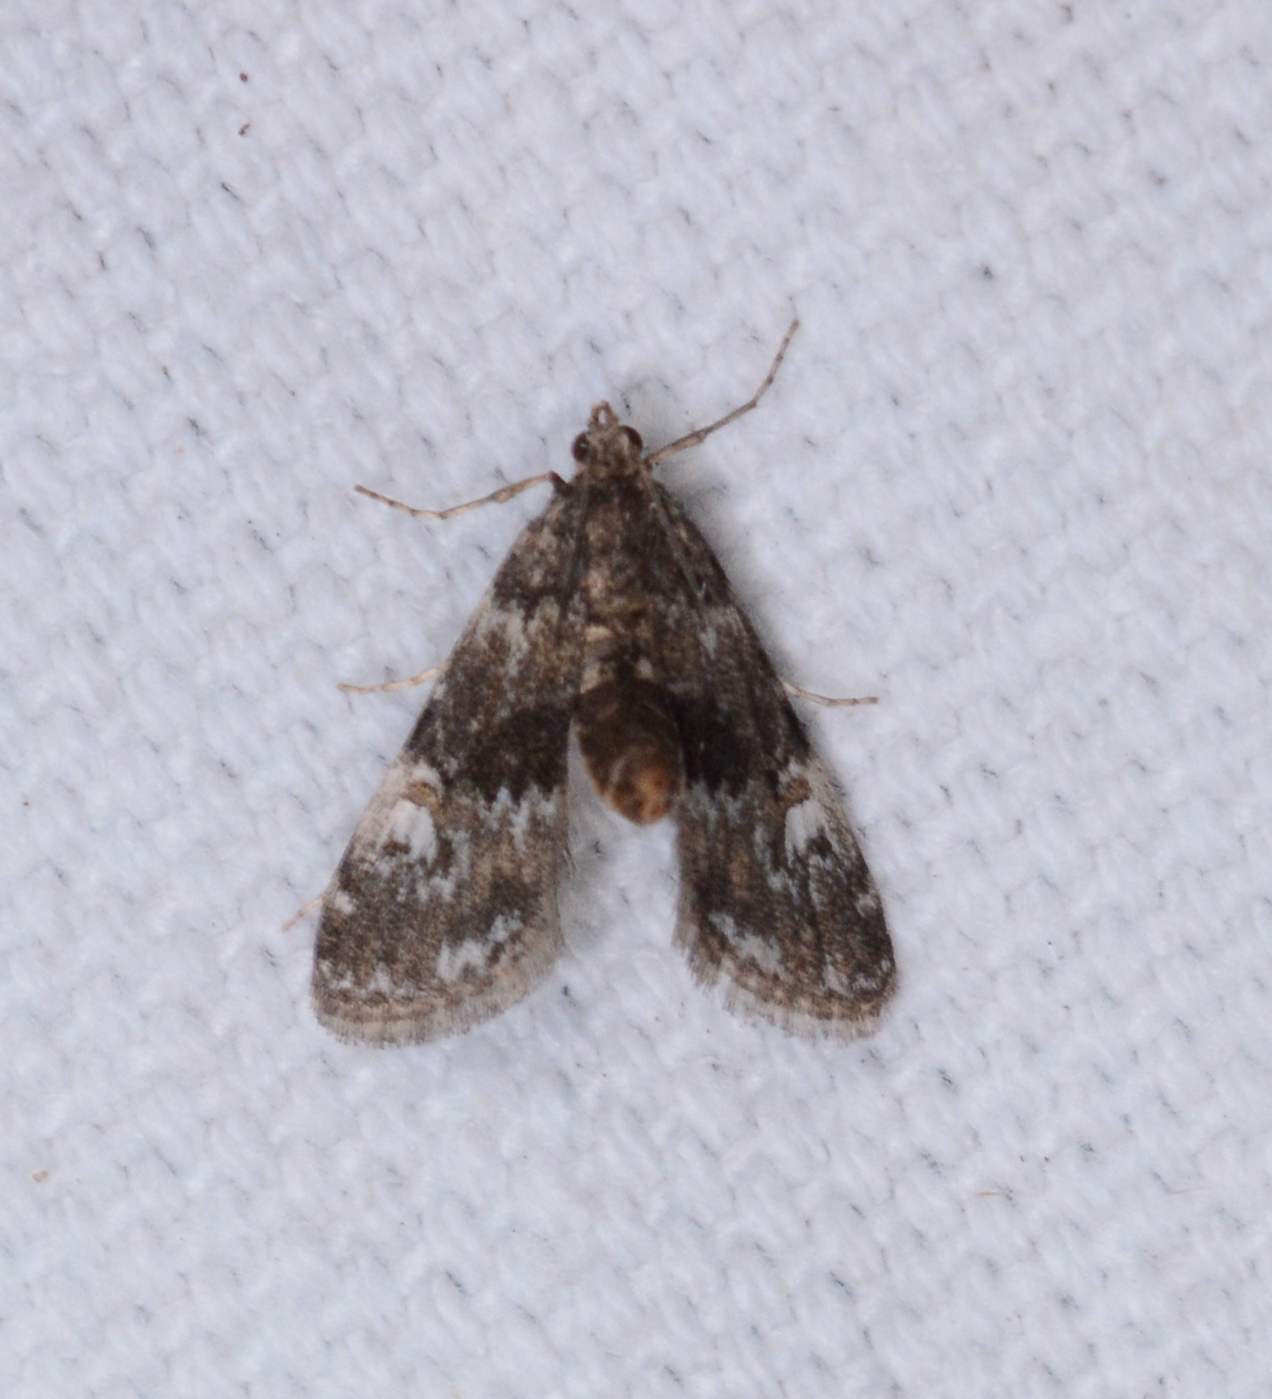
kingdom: Animalia
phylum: Arthropoda
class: Insecta
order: Lepidoptera
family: Crambidae
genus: Elophila
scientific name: Elophila obliteralis
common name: Waterlily leafcutter moth
